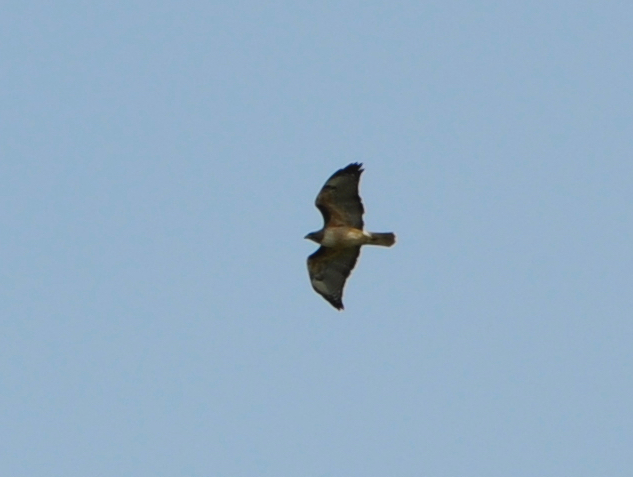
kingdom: Animalia
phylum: Chordata
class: Aves
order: Accipitriformes
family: Accipitridae
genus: Buteo
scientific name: Buteo jamaicensis
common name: Red-tailed hawk
